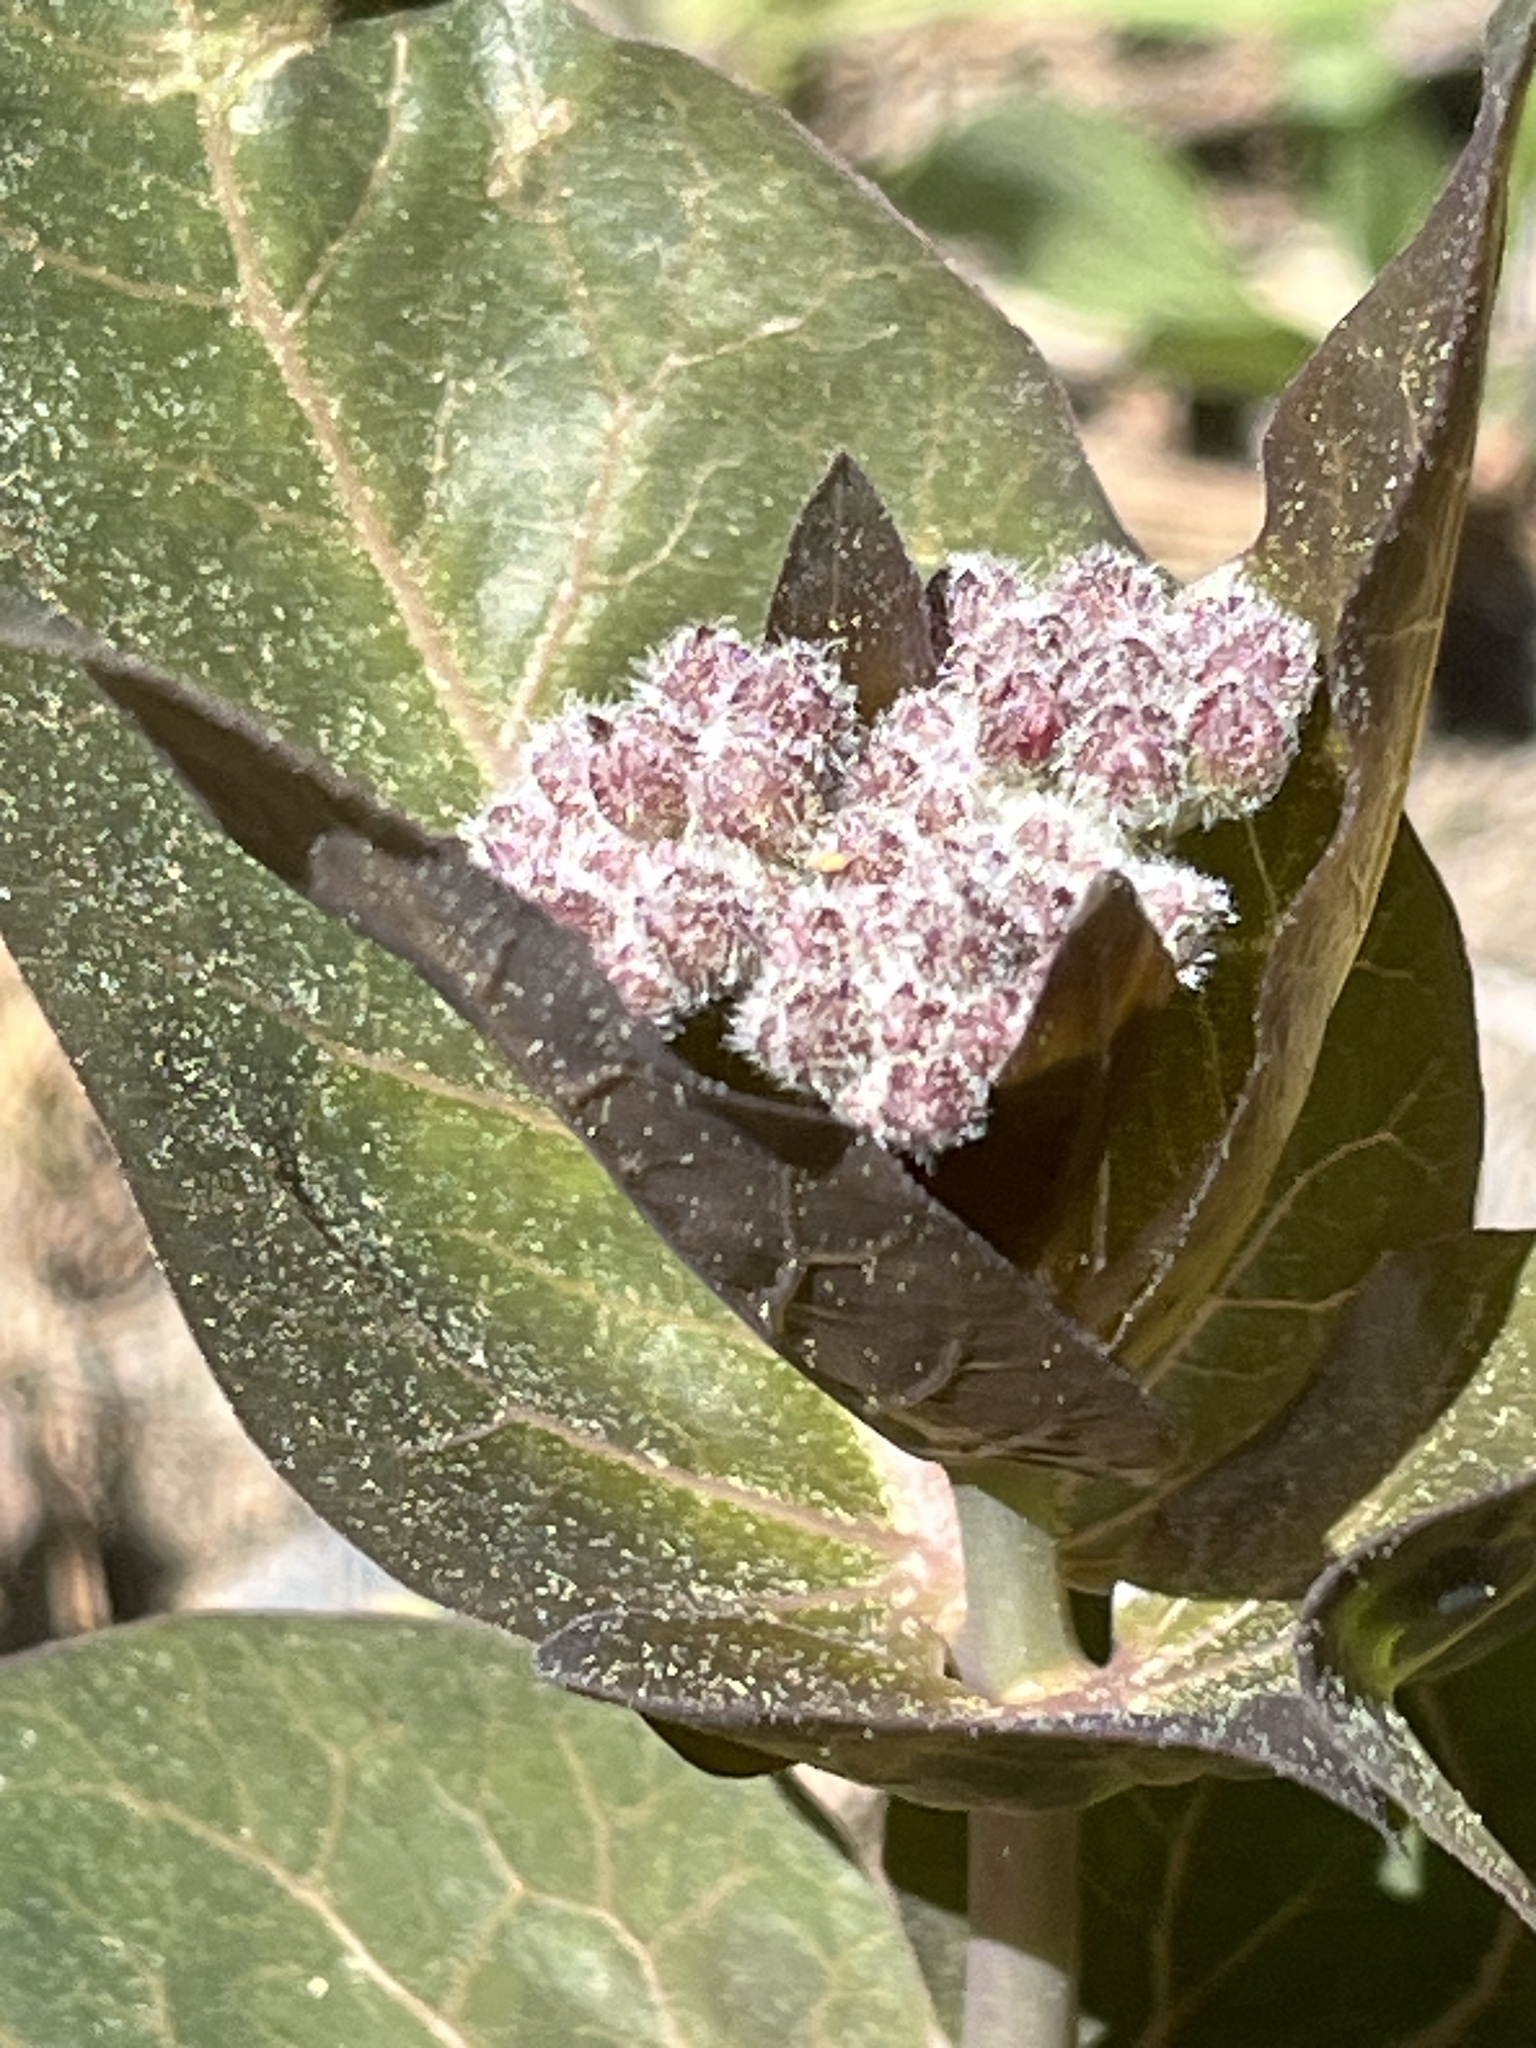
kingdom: Plantae
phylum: Tracheophyta
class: Magnoliopsida
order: Gentianales
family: Apocynaceae
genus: Asclepias
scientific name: Asclepias cordifolia
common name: Purple milkweed
